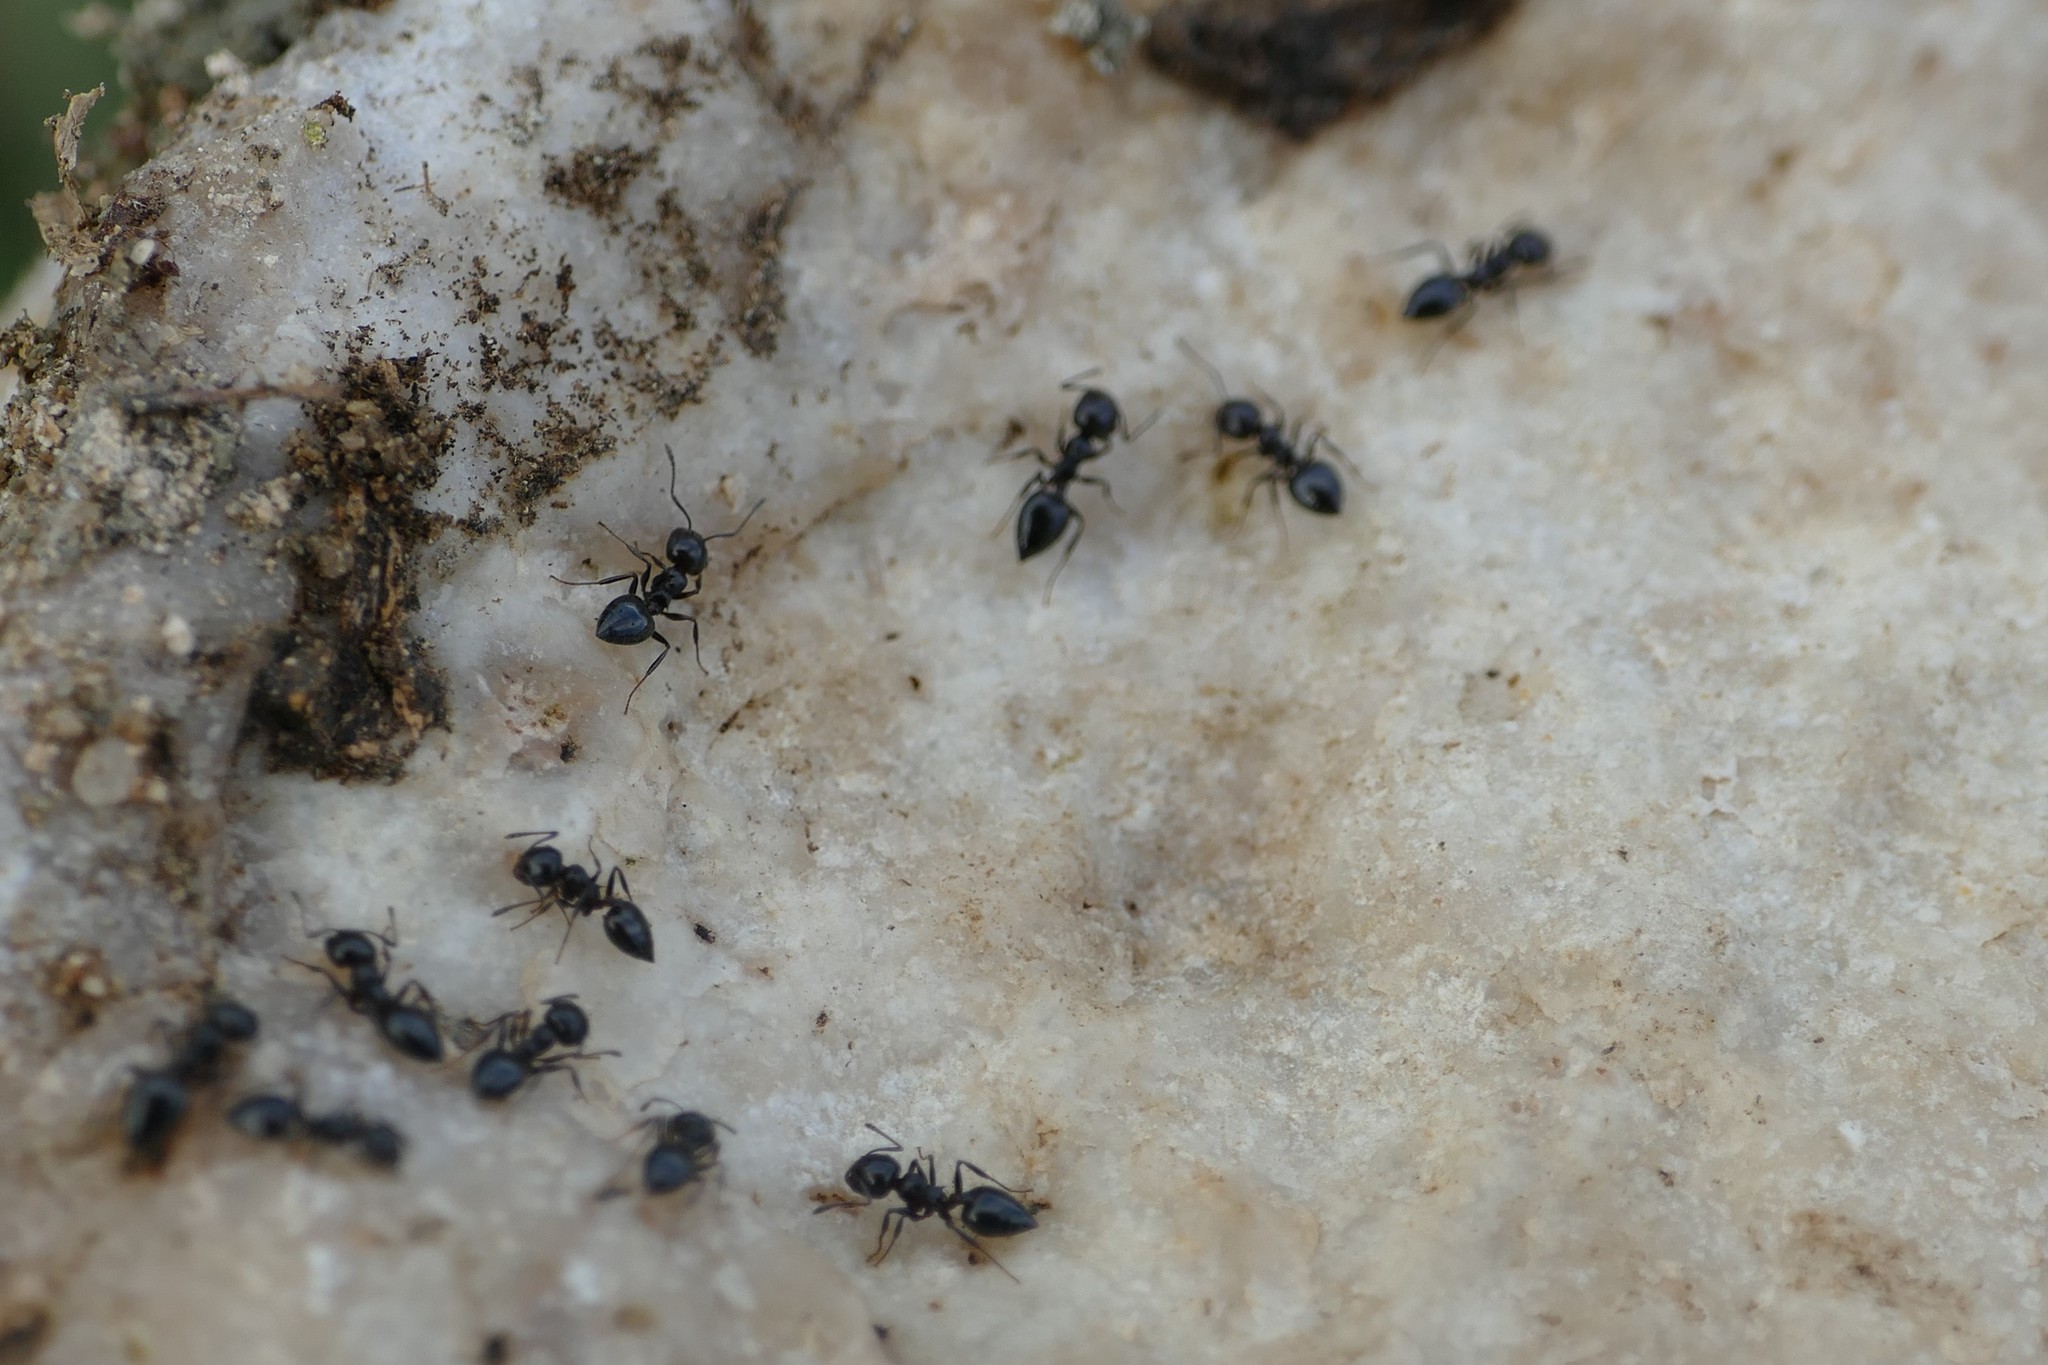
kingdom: Animalia
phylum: Arthropoda
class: Insecta
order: Hymenoptera
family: Formicidae
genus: Crematogaster
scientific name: Crematogaster auberti
